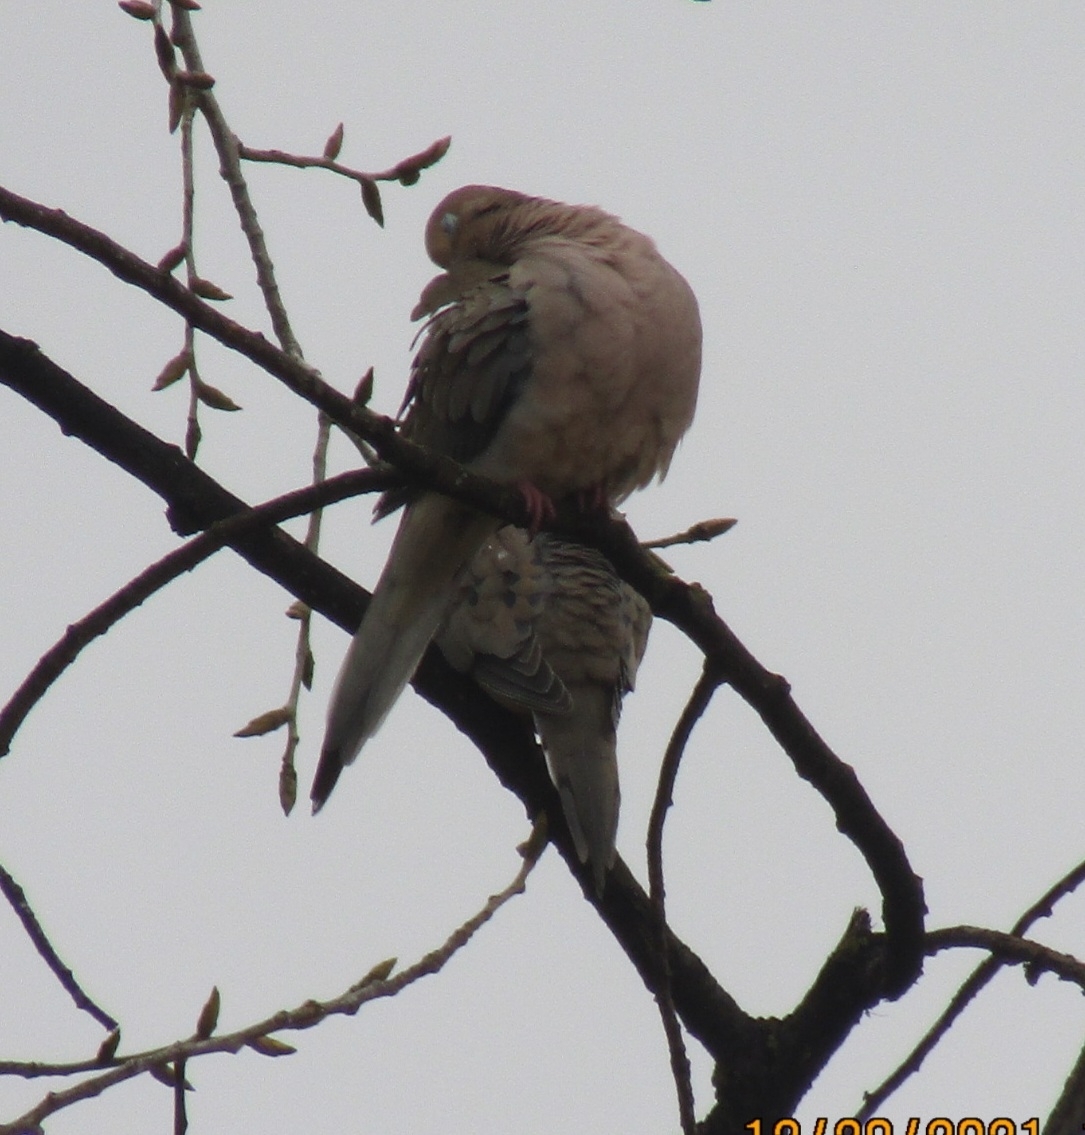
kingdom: Animalia
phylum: Chordata
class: Aves
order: Columbiformes
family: Columbidae
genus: Zenaida
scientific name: Zenaida macroura
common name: Mourning dove
